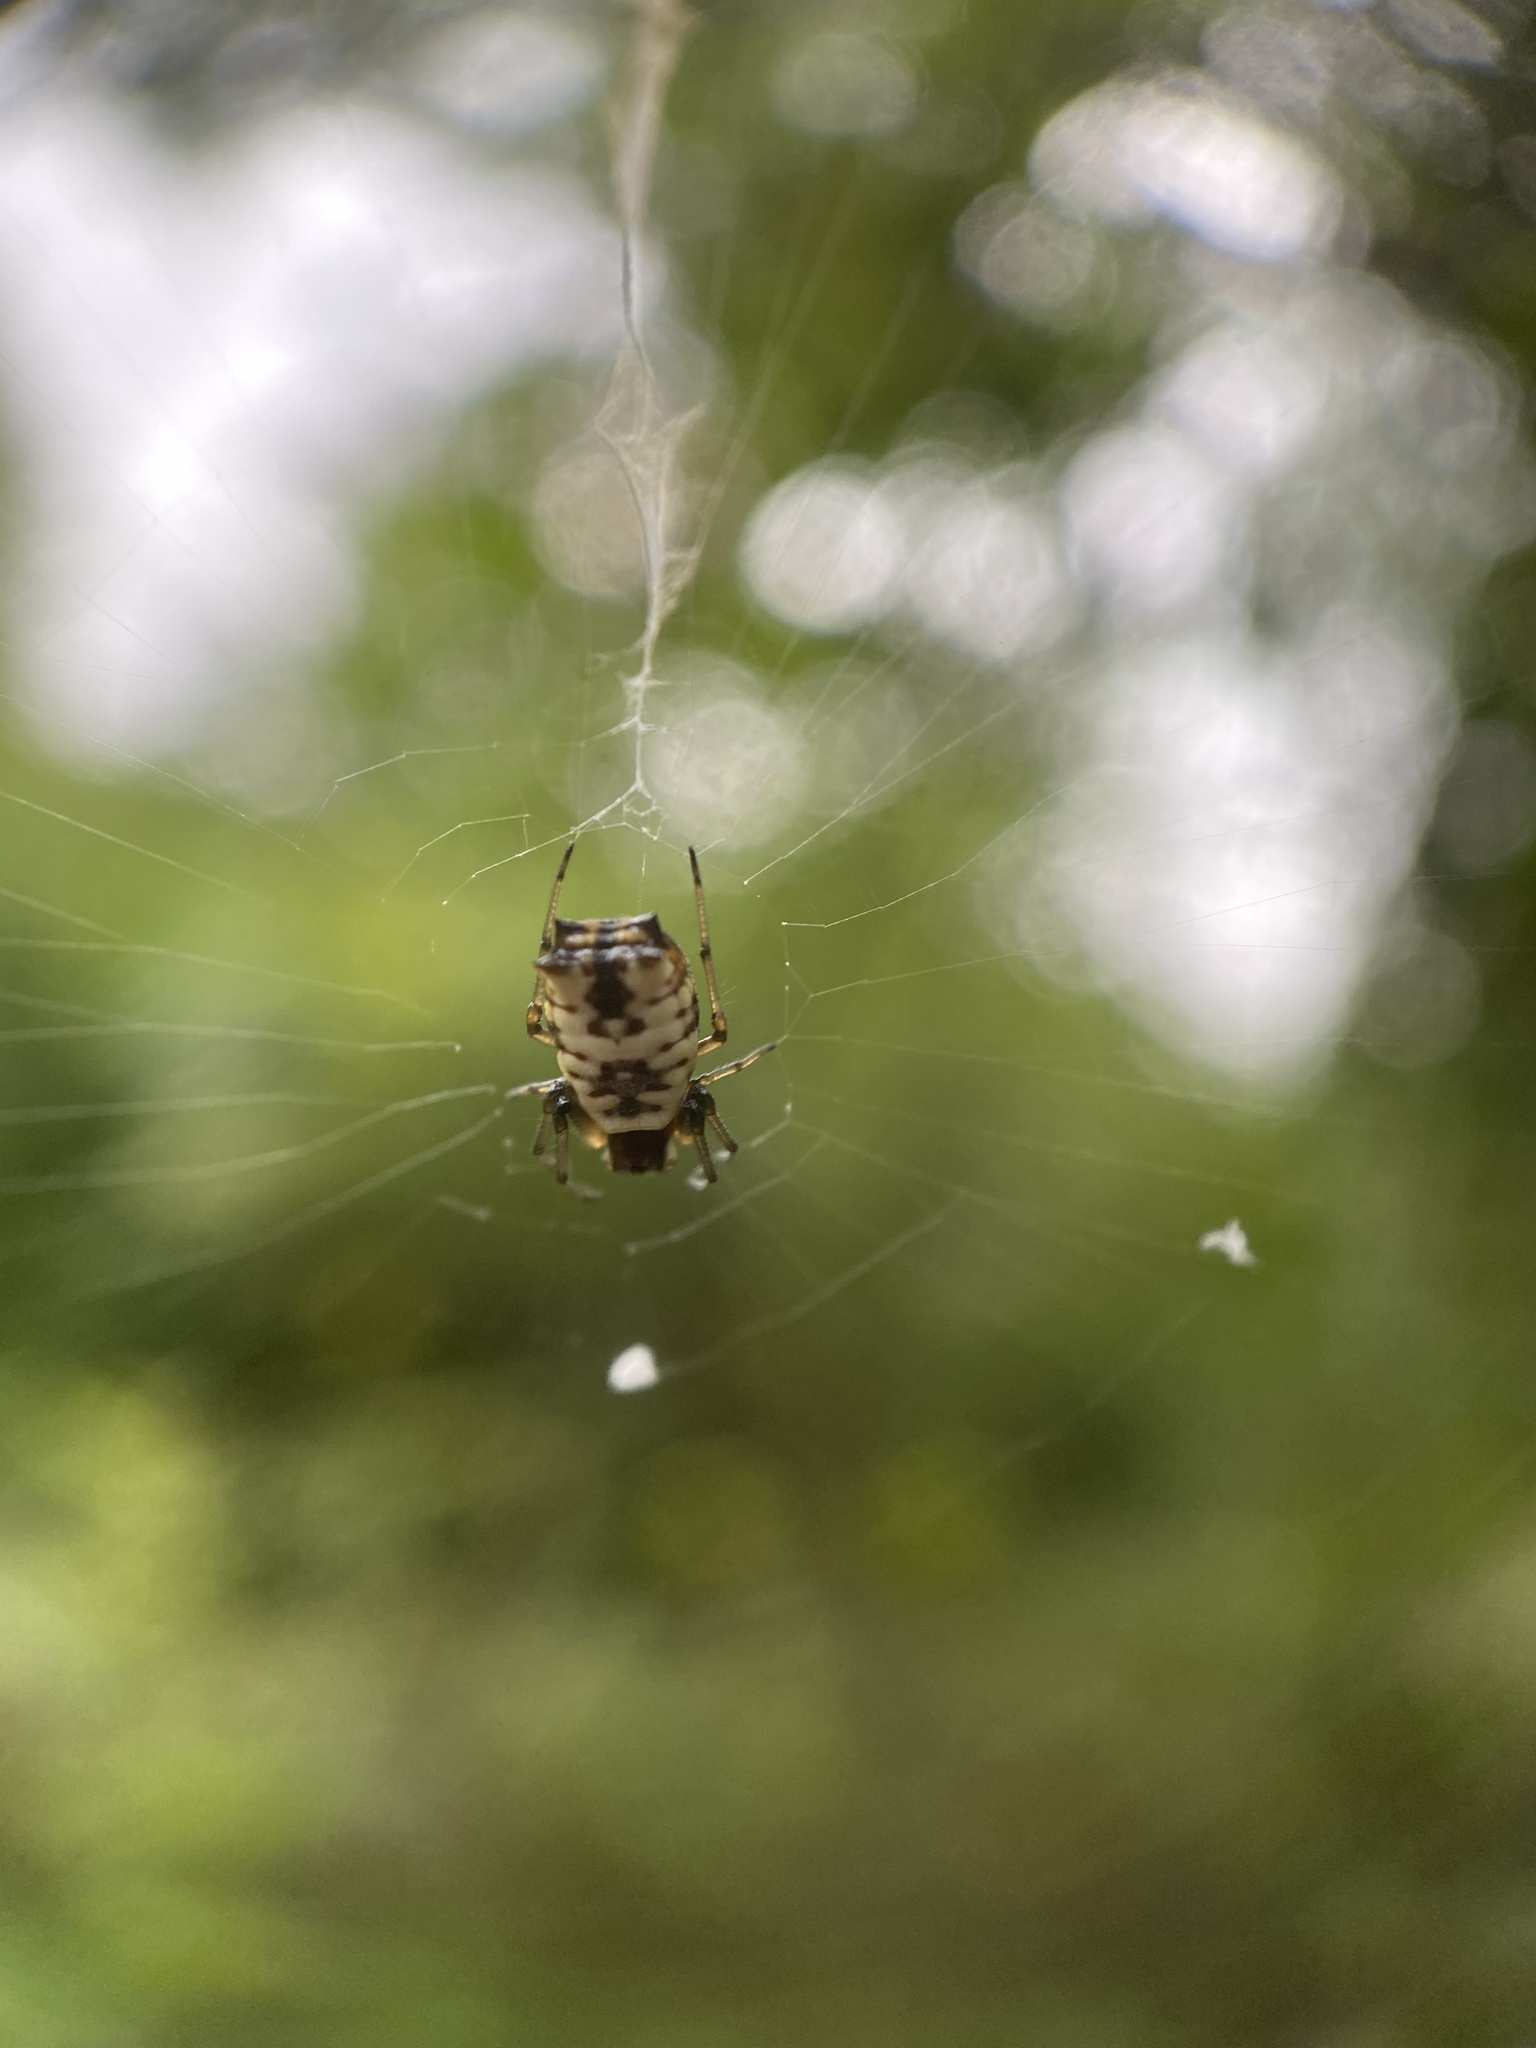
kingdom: Animalia
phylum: Arthropoda
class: Arachnida
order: Araneae
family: Araneidae
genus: Micrathena
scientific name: Micrathena mitrata
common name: Orb weavers
